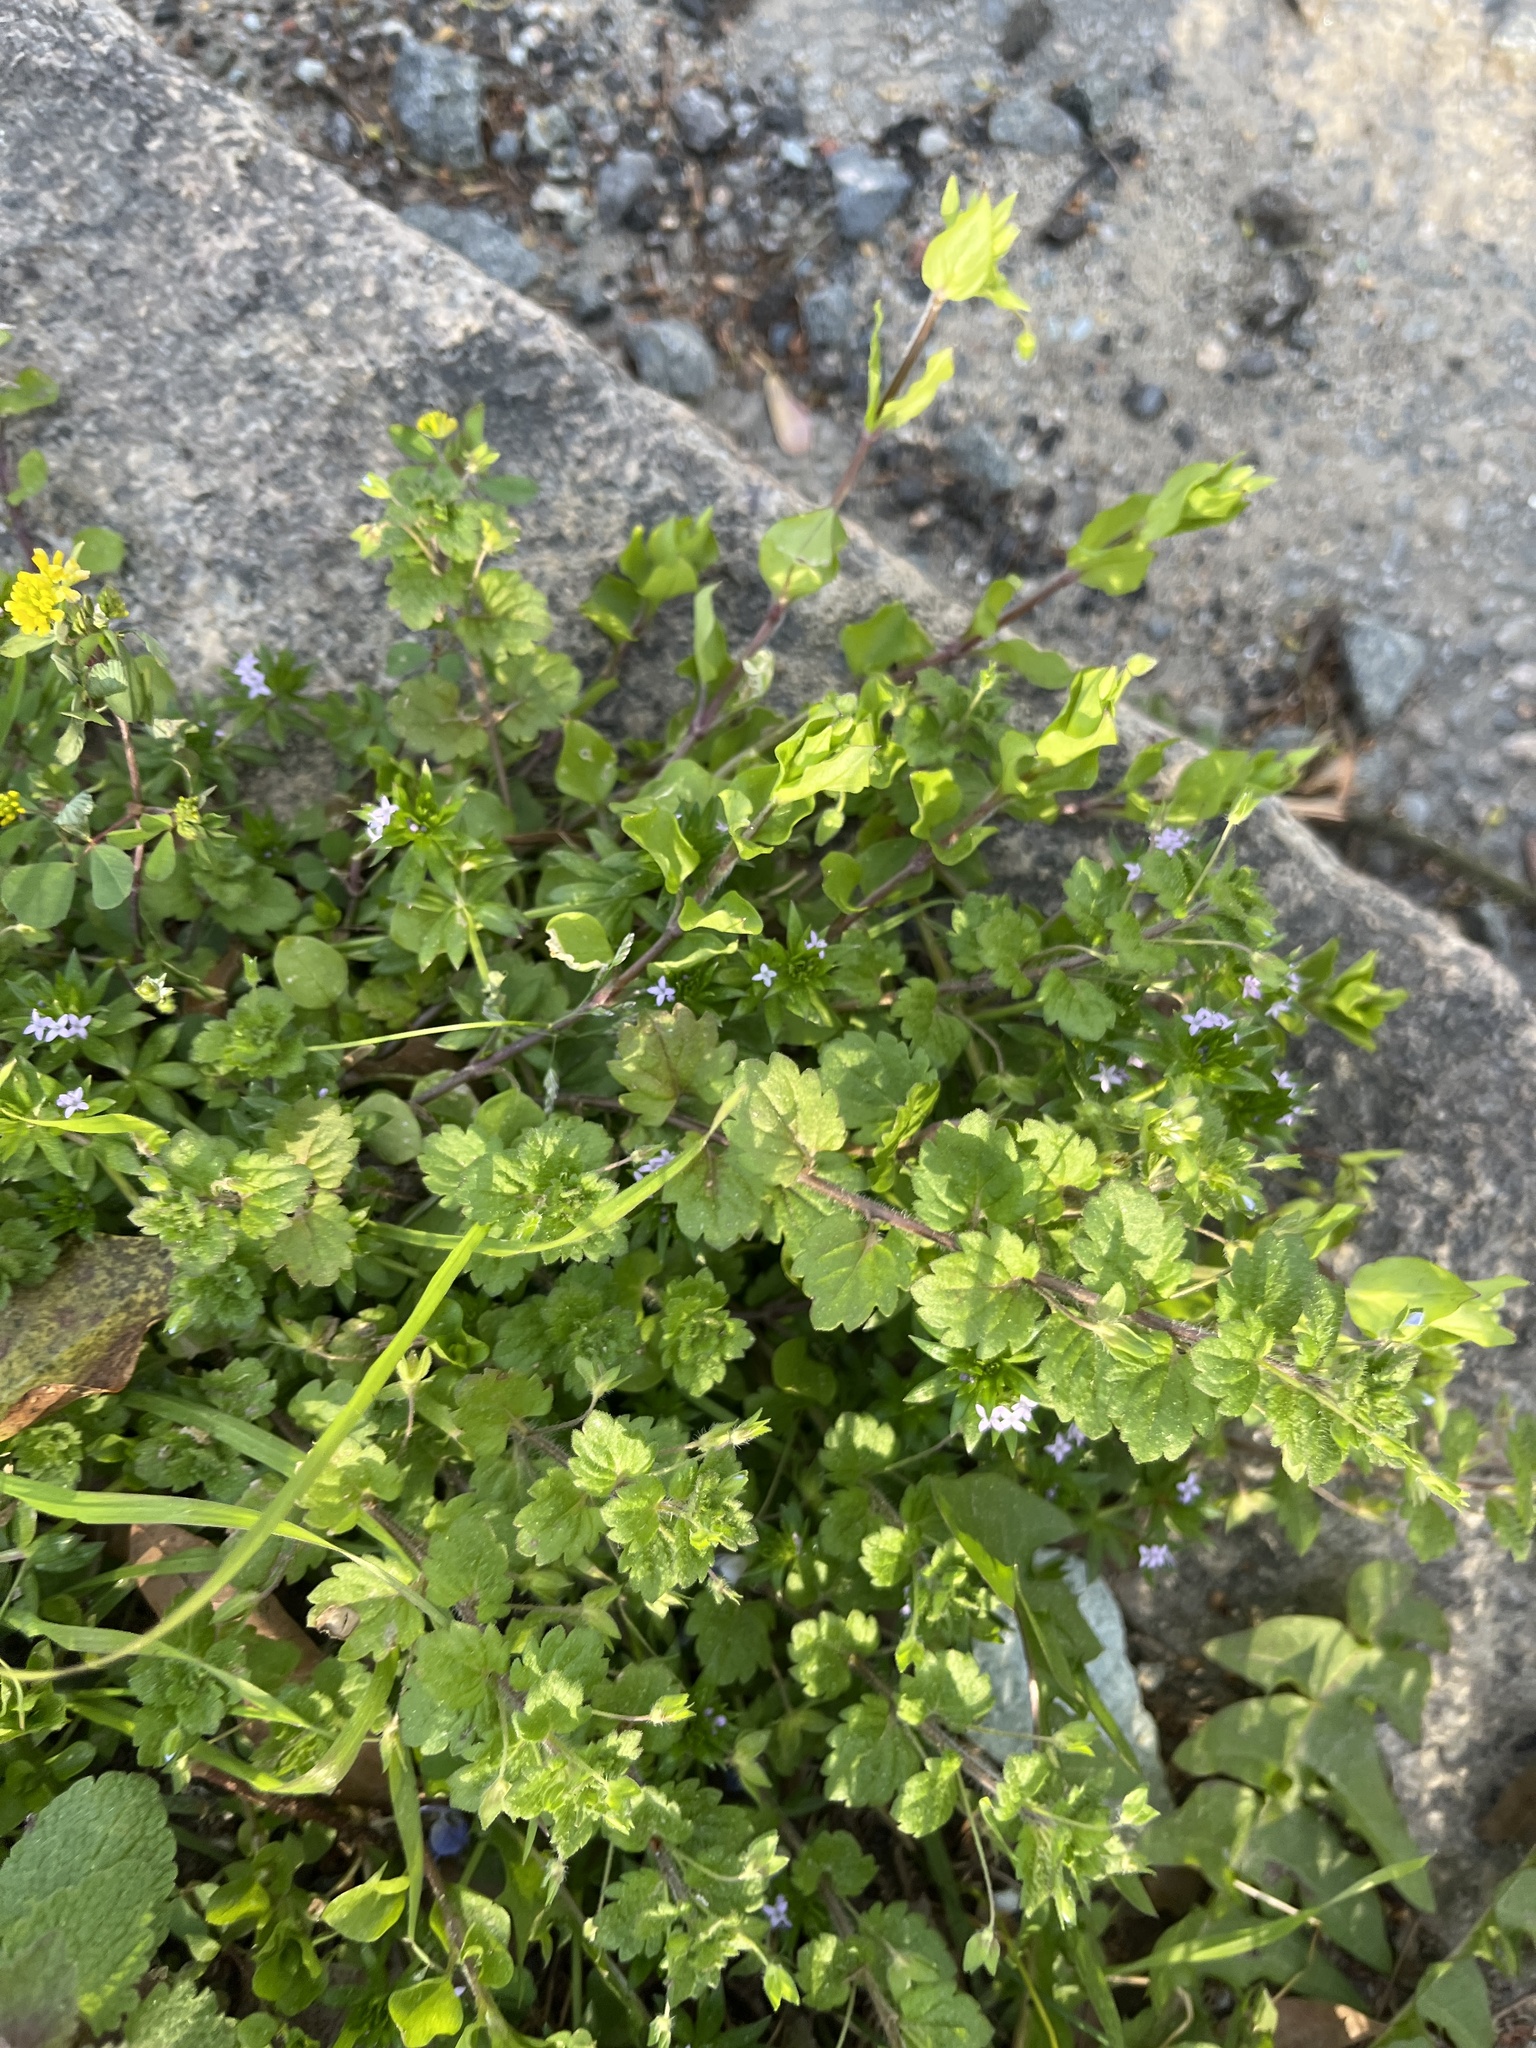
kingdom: Plantae
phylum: Tracheophyta
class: Magnoliopsida
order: Lamiales
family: Plantaginaceae
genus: Veronica
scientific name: Veronica persica
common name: Common field-speedwell
